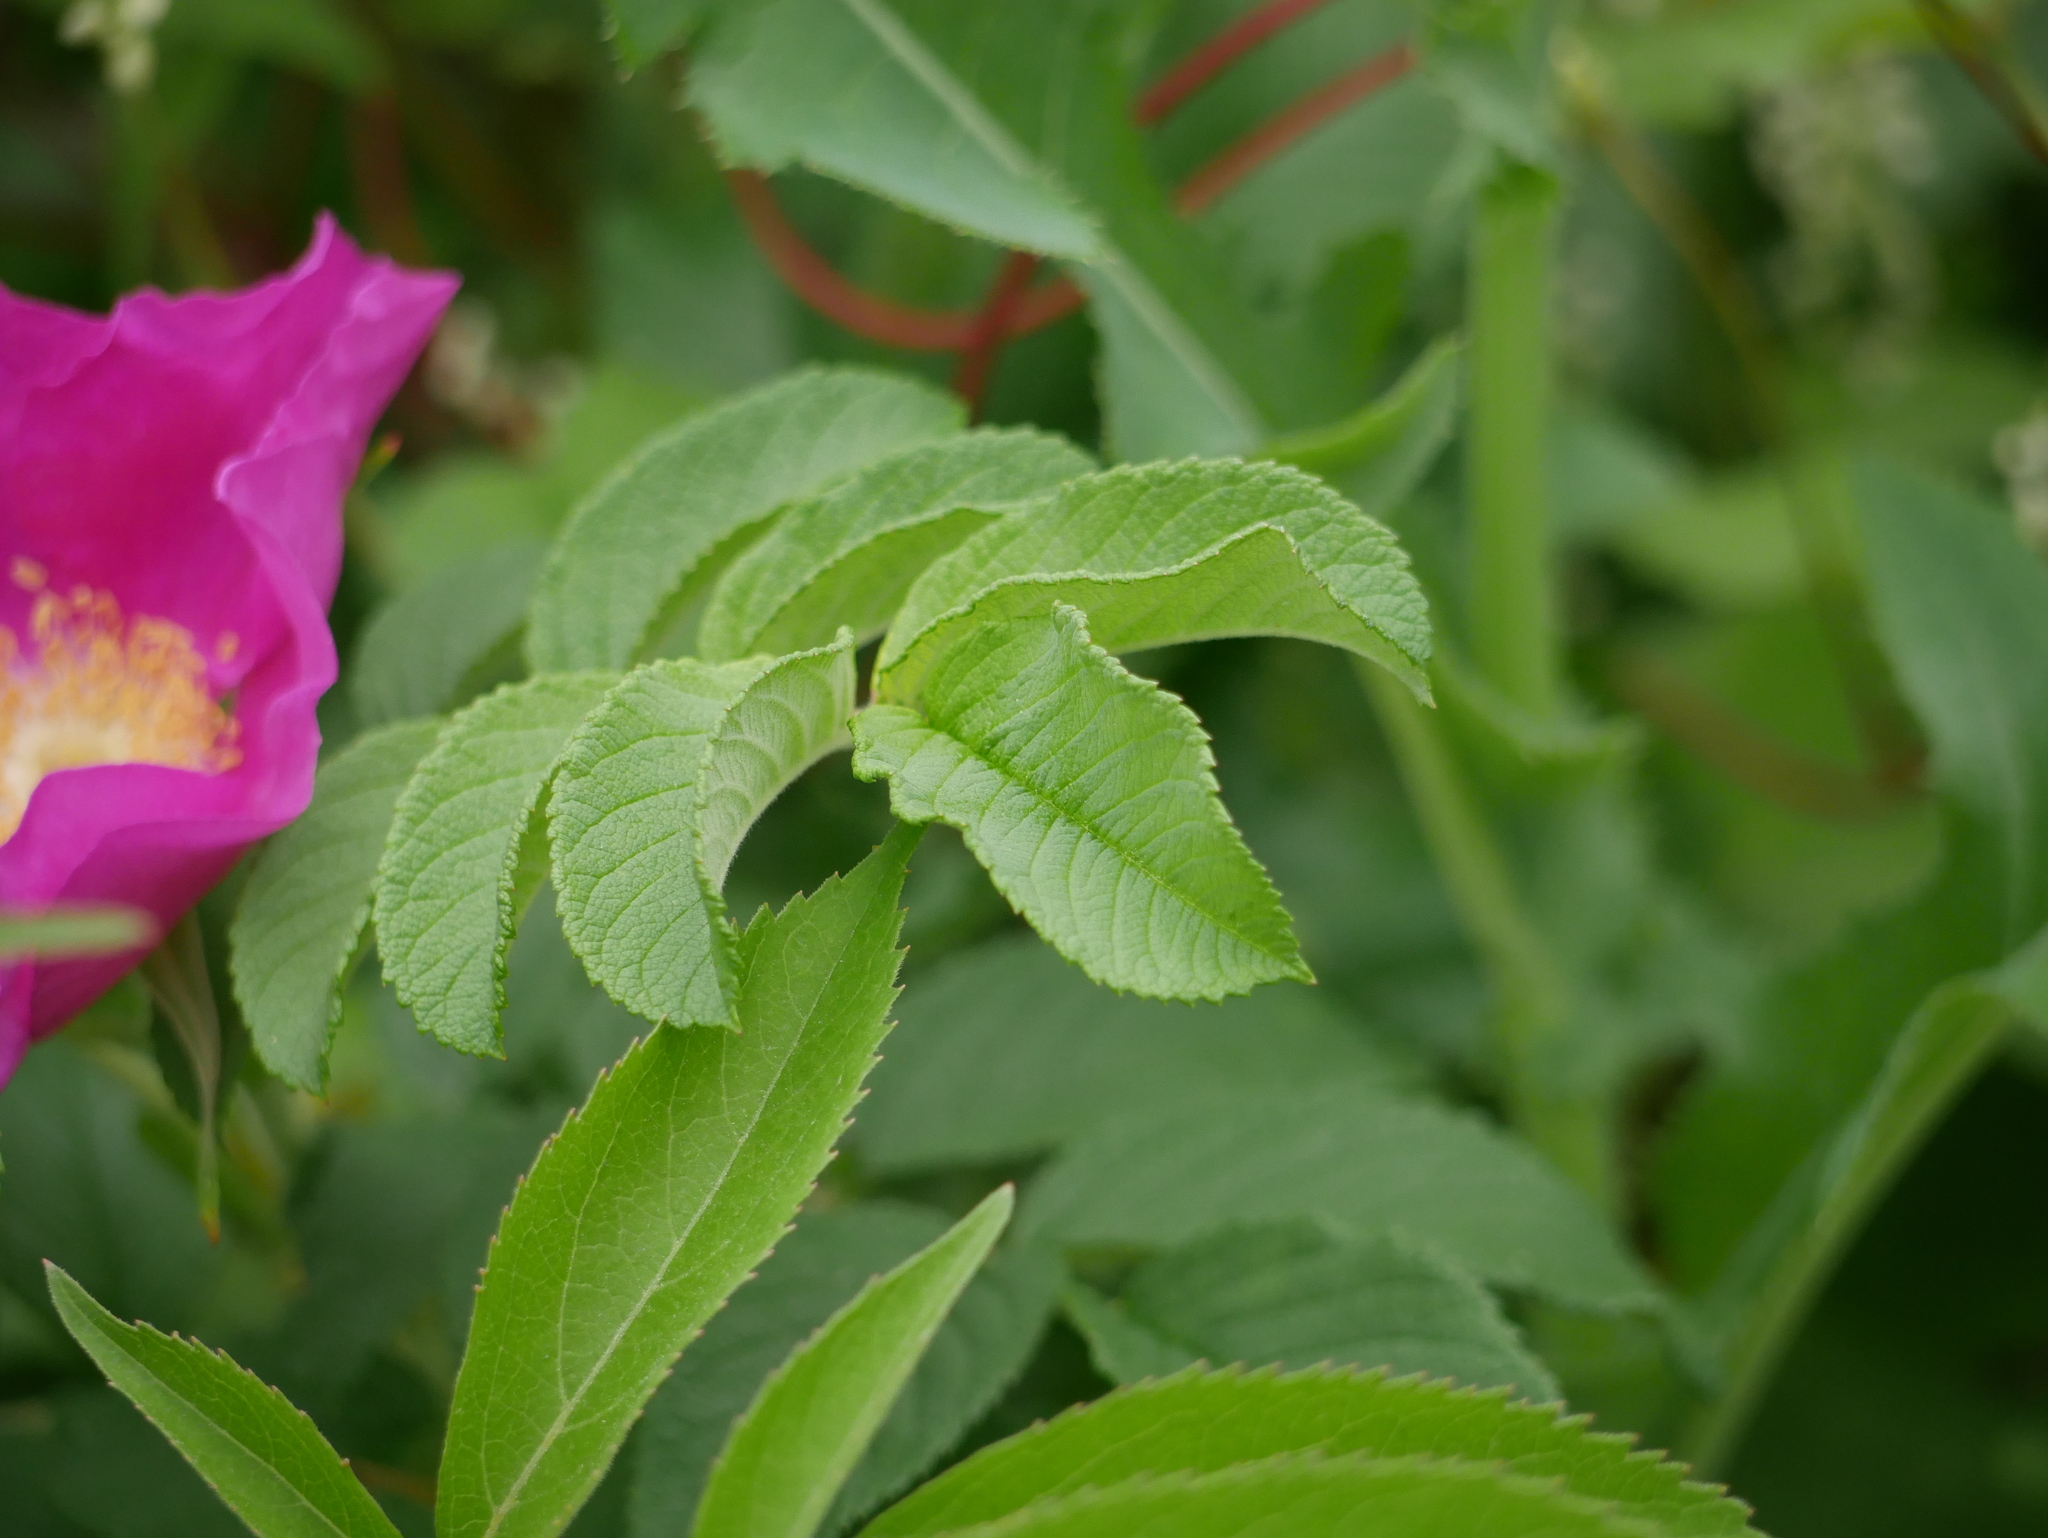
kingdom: Plantae
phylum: Tracheophyta
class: Magnoliopsida
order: Rosales
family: Rosaceae
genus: Rosa
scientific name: Rosa rugosa
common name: Japanese rose
